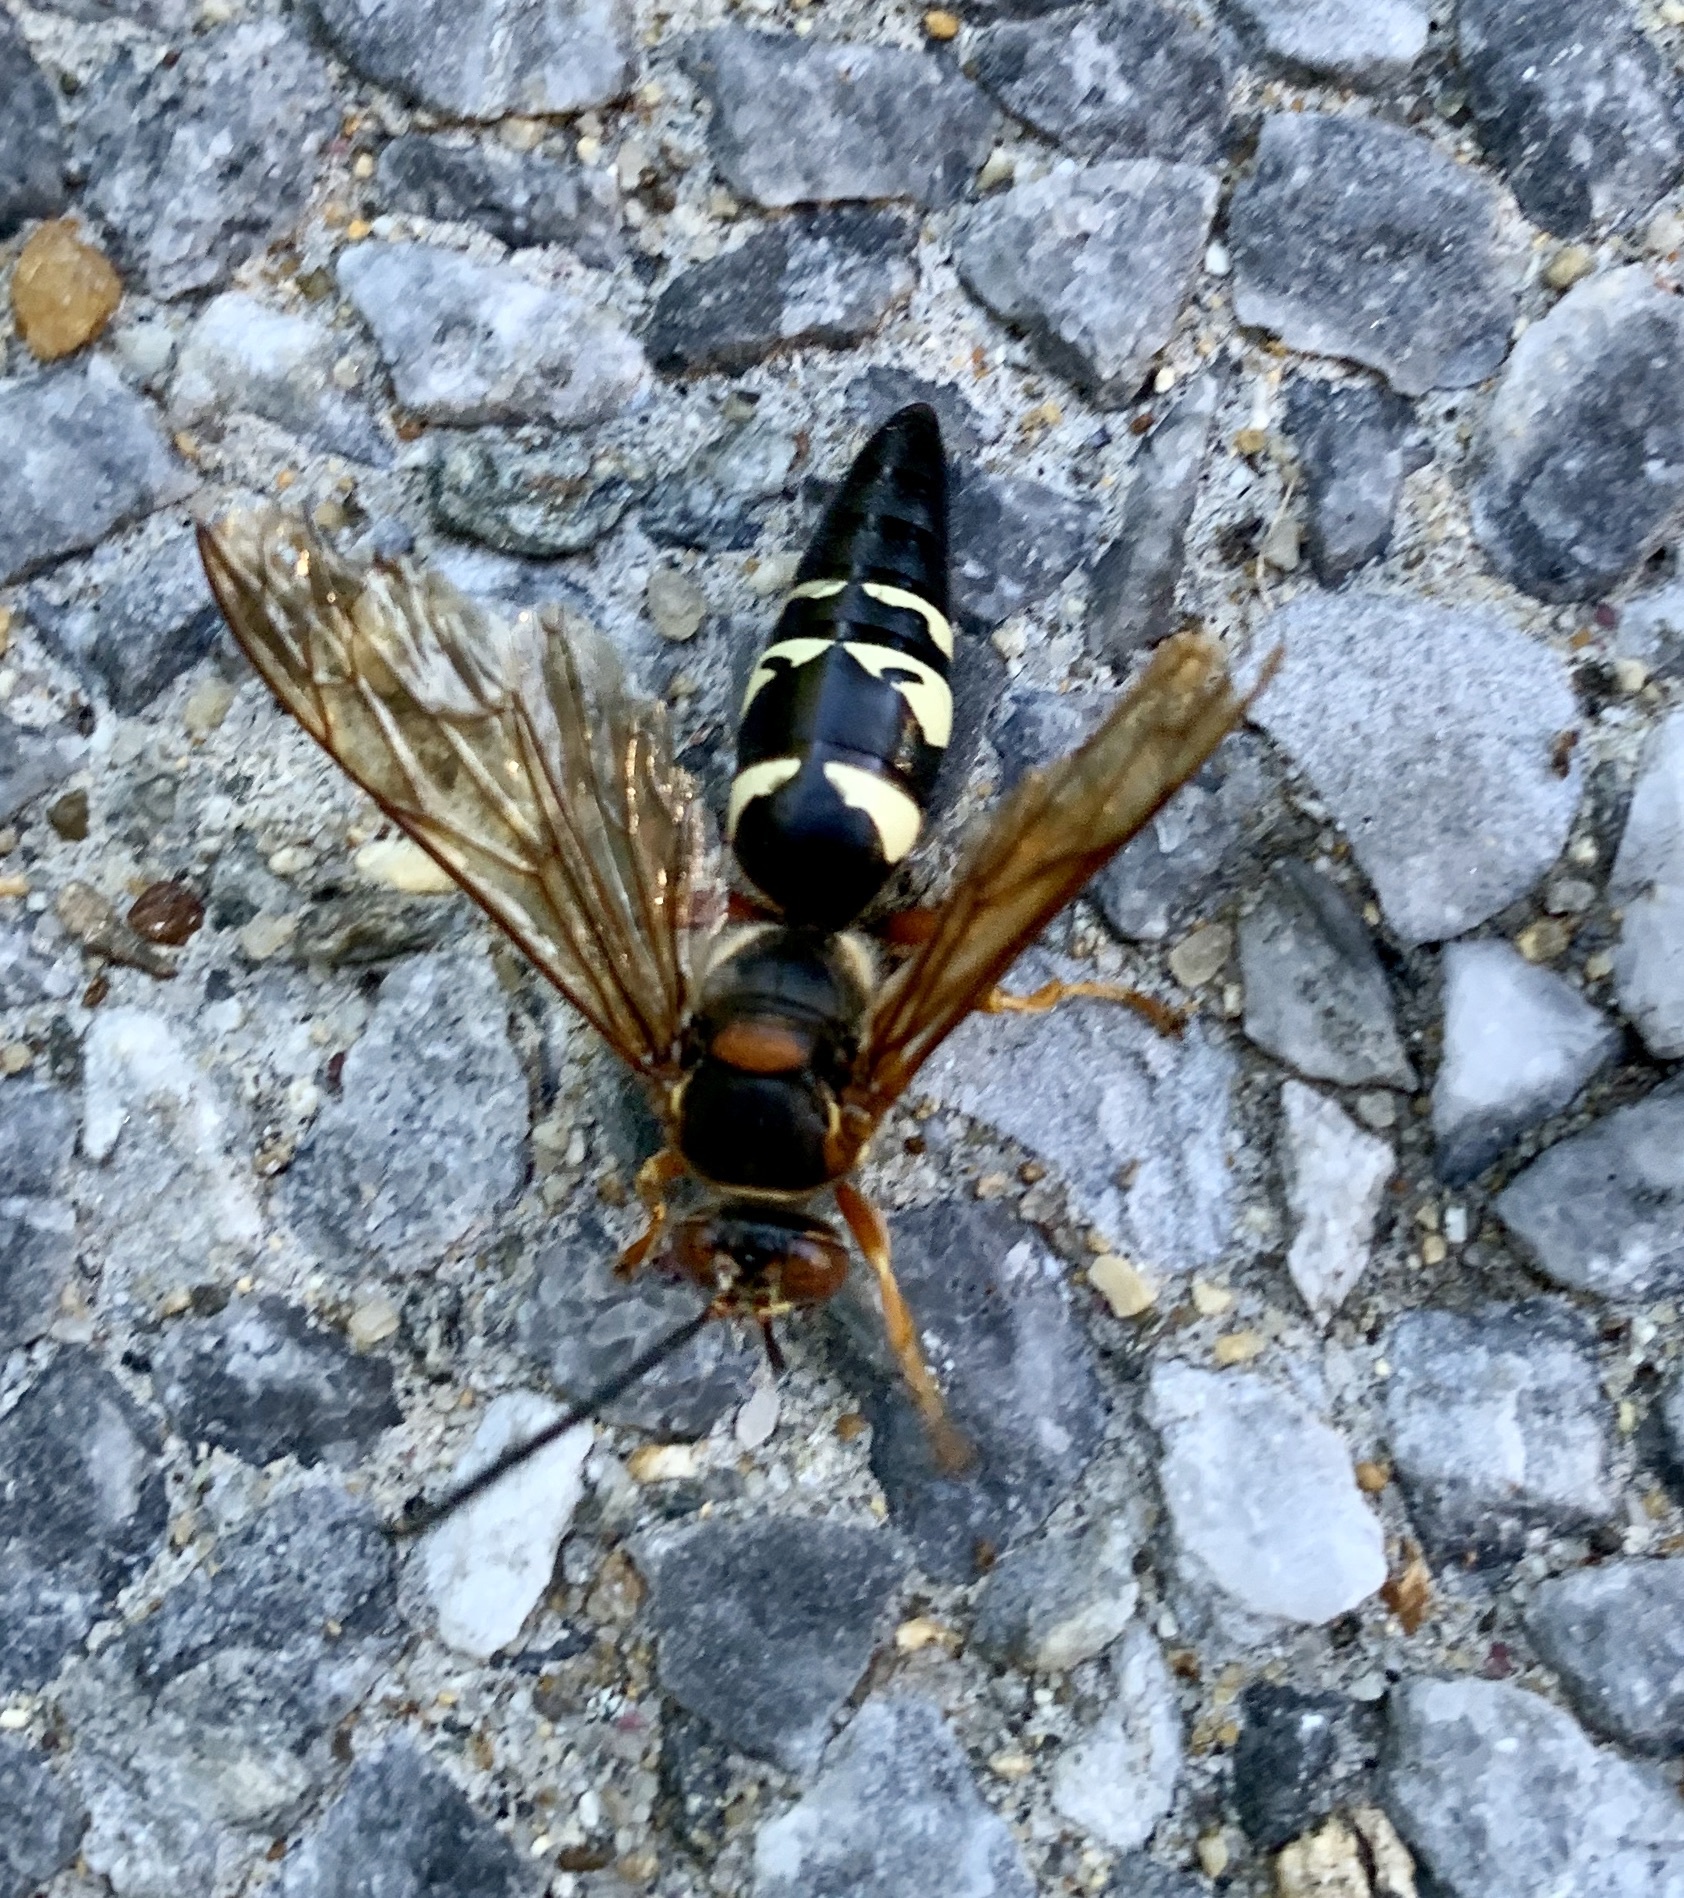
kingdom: Animalia
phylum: Arthropoda
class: Insecta
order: Hymenoptera
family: Crabronidae
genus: Sphecius
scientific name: Sphecius speciosus
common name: Cicada killer
